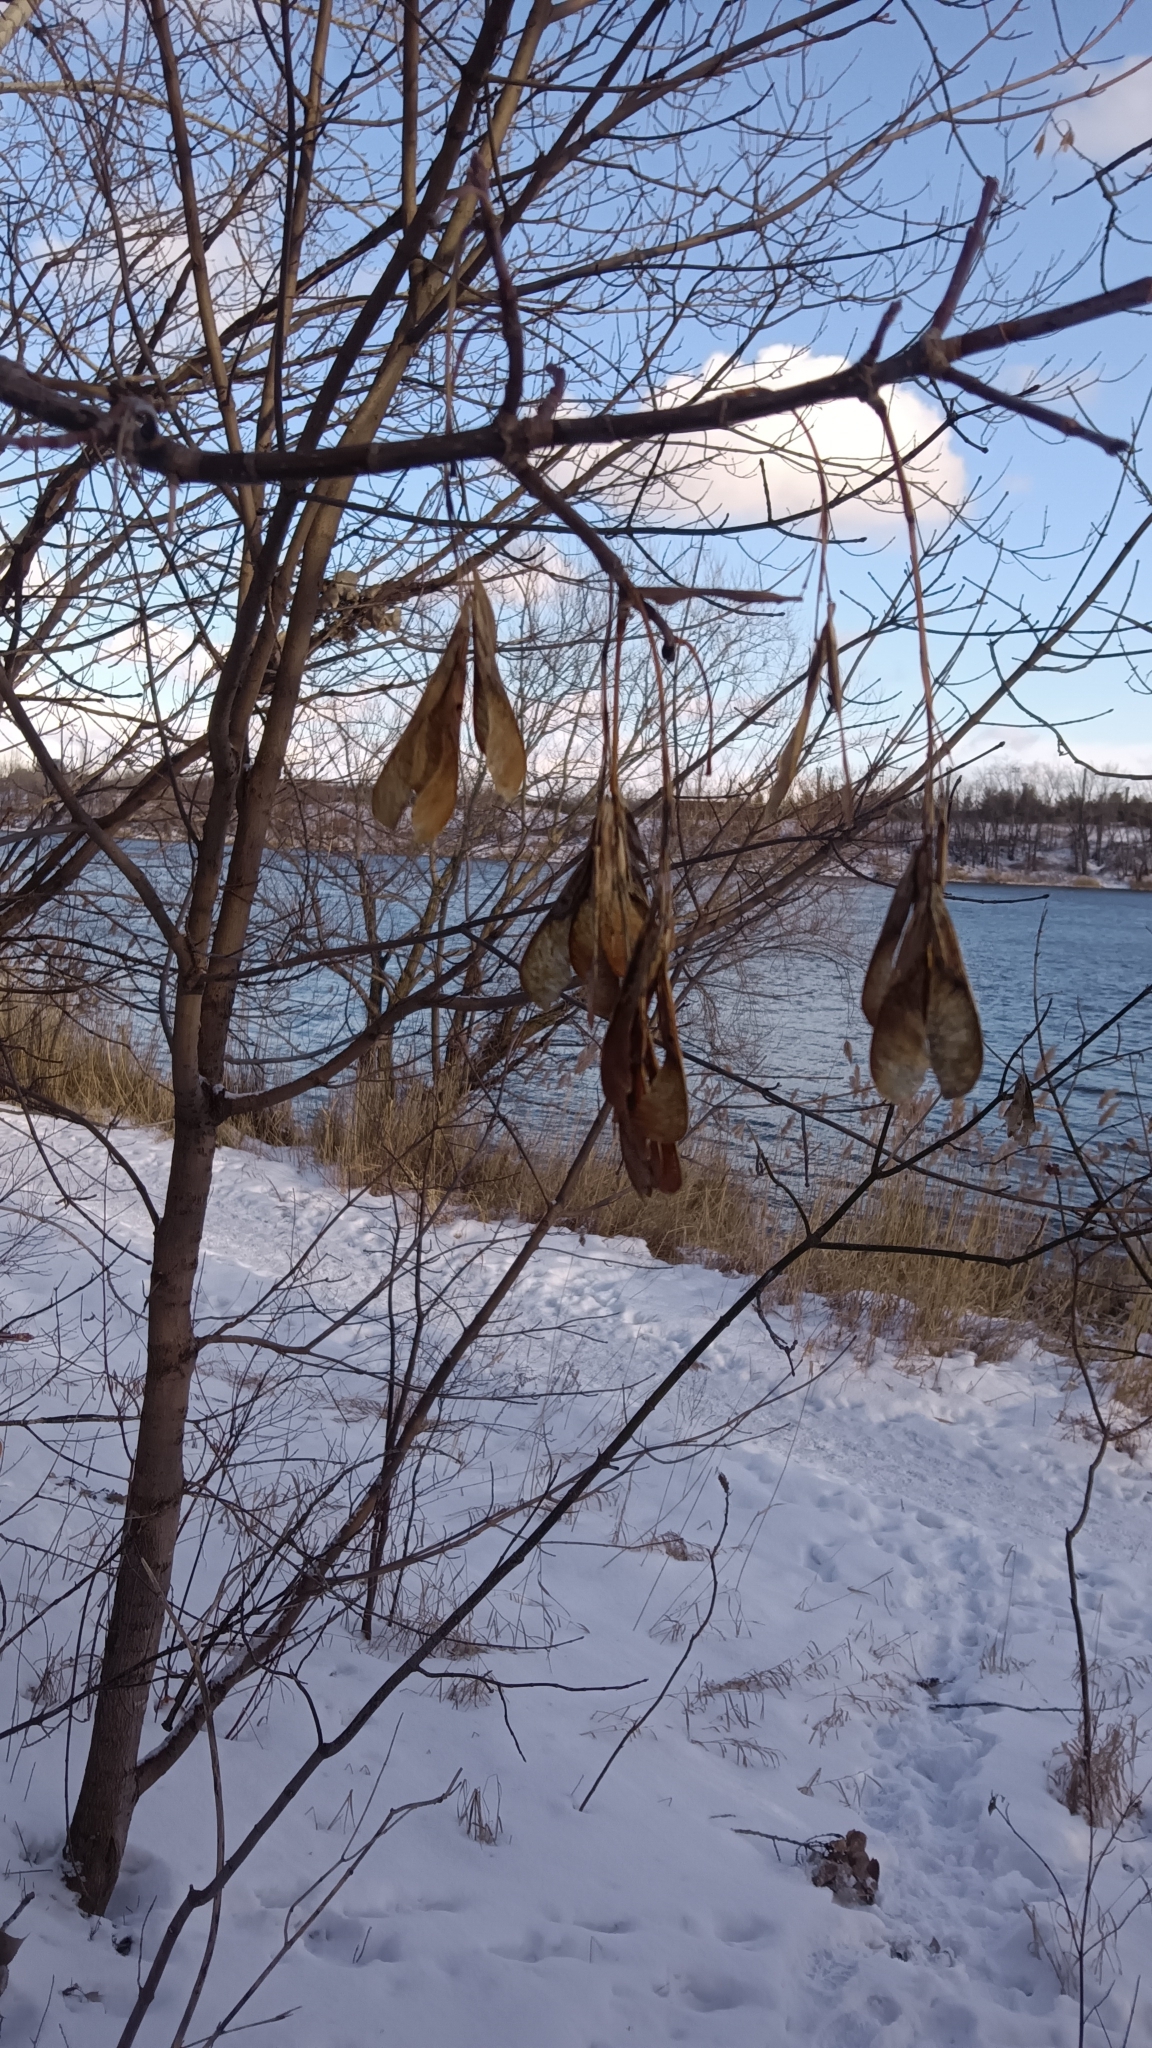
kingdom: Plantae
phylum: Tracheophyta
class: Magnoliopsida
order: Sapindales
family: Sapindaceae
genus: Acer
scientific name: Acer negundo
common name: Ashleaf maple
